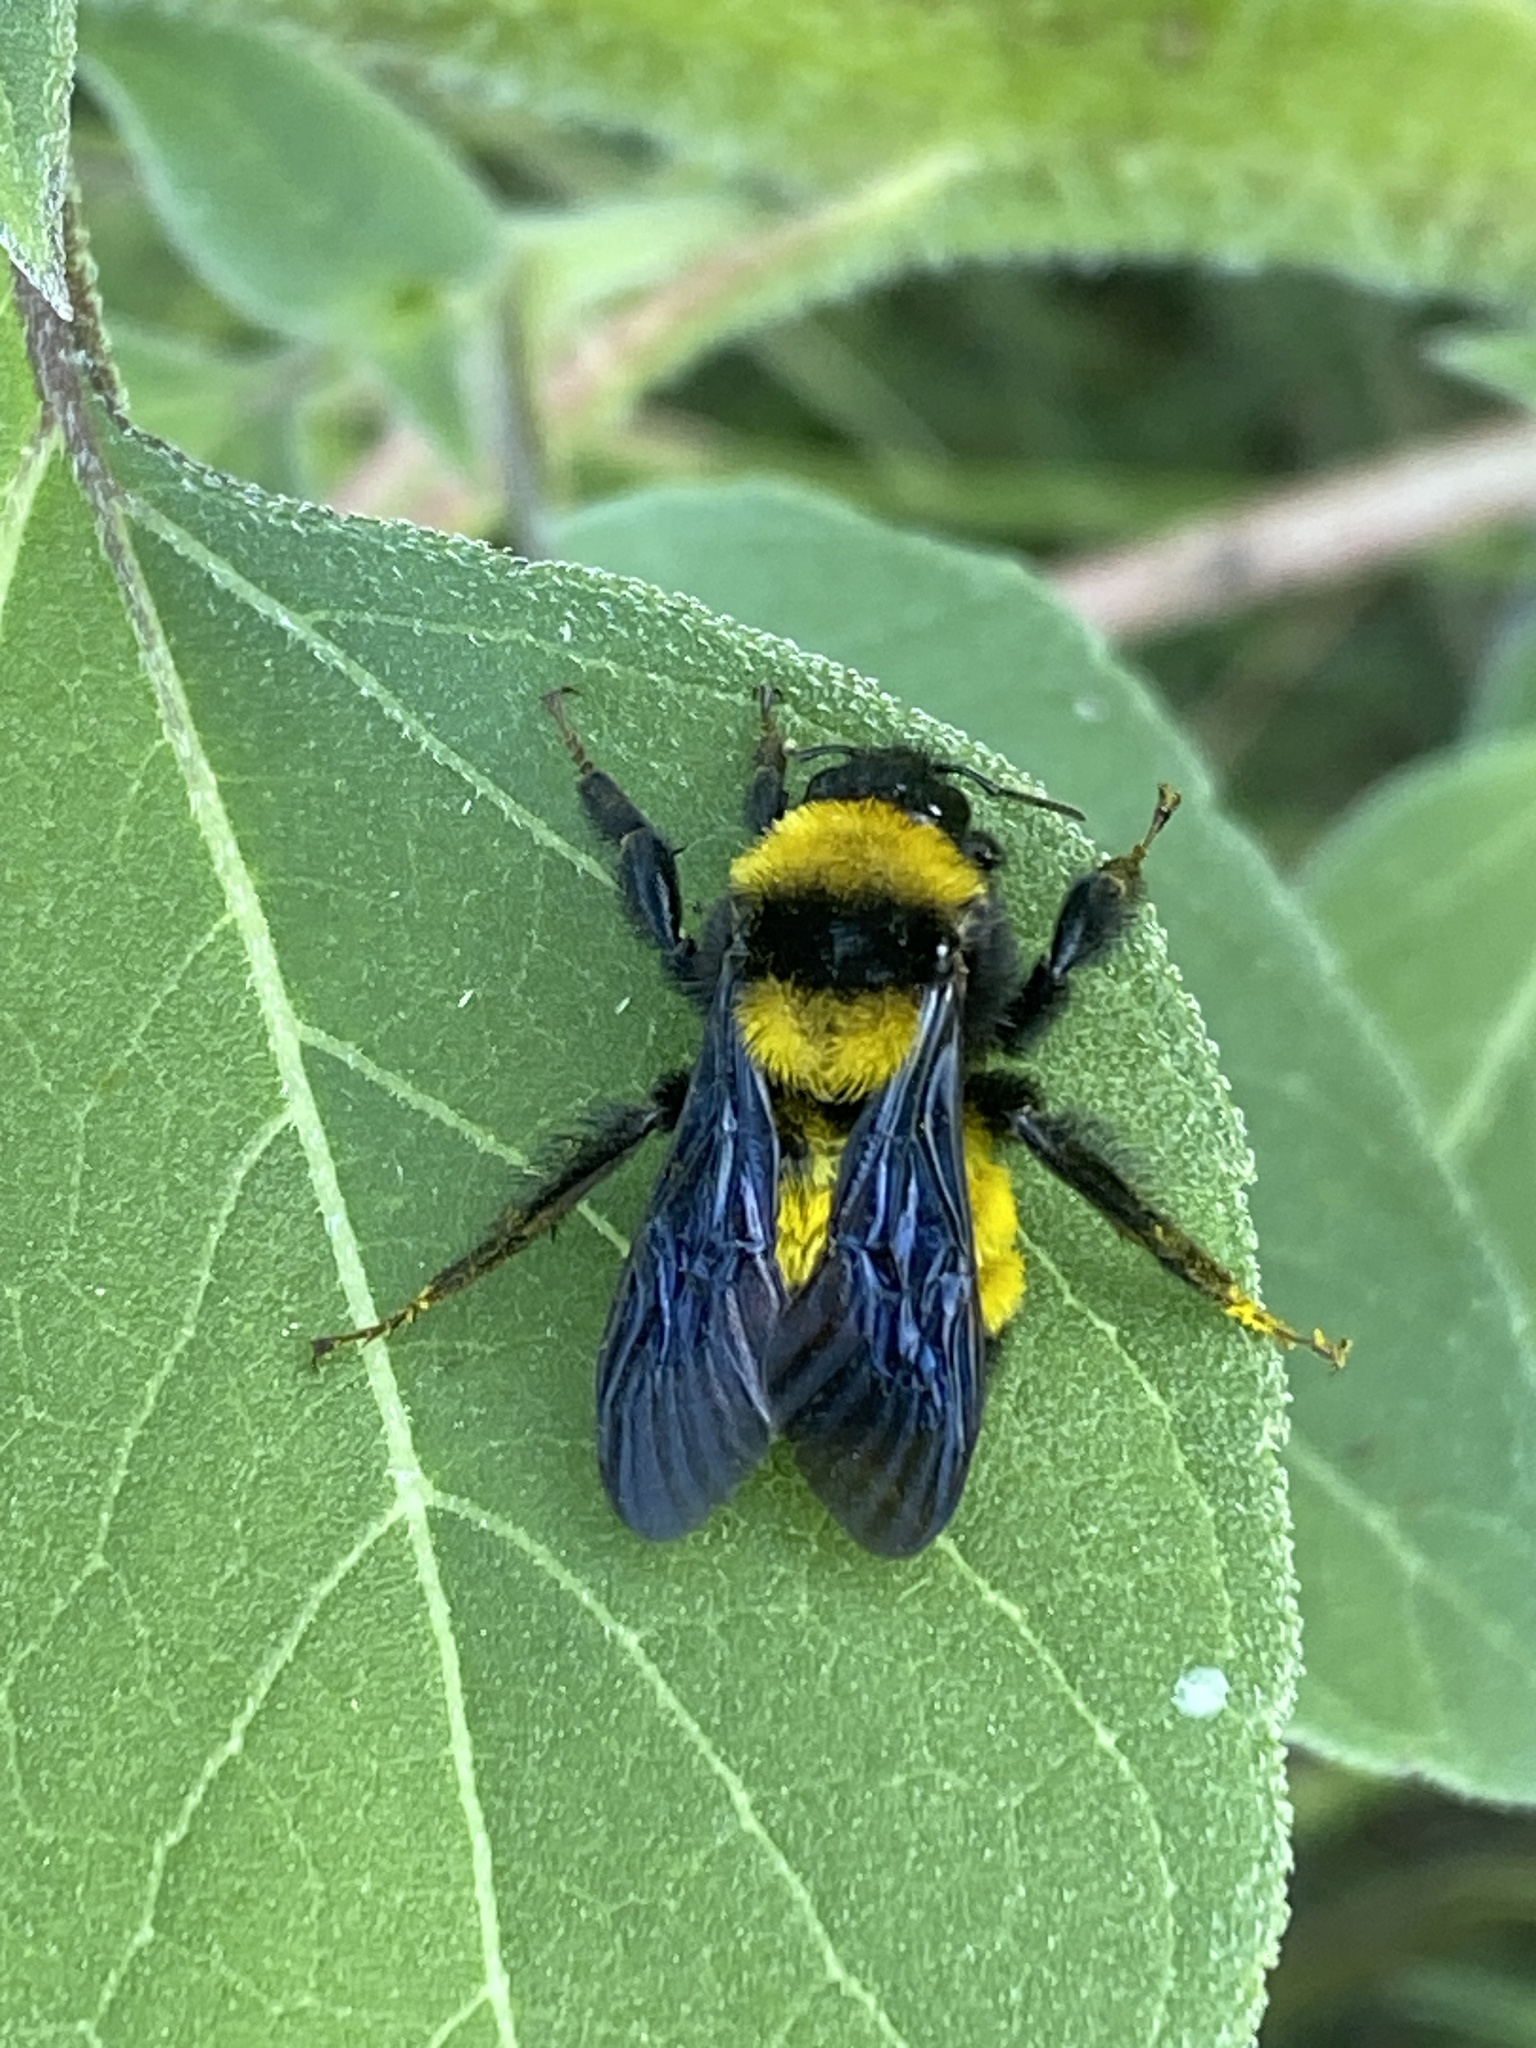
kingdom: Animalia
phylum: Arthropoda
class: Insecta
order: Hymenoptera
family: Apidae
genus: Bombus
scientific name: Bombus sonorus
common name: Sonoran bumble bee
